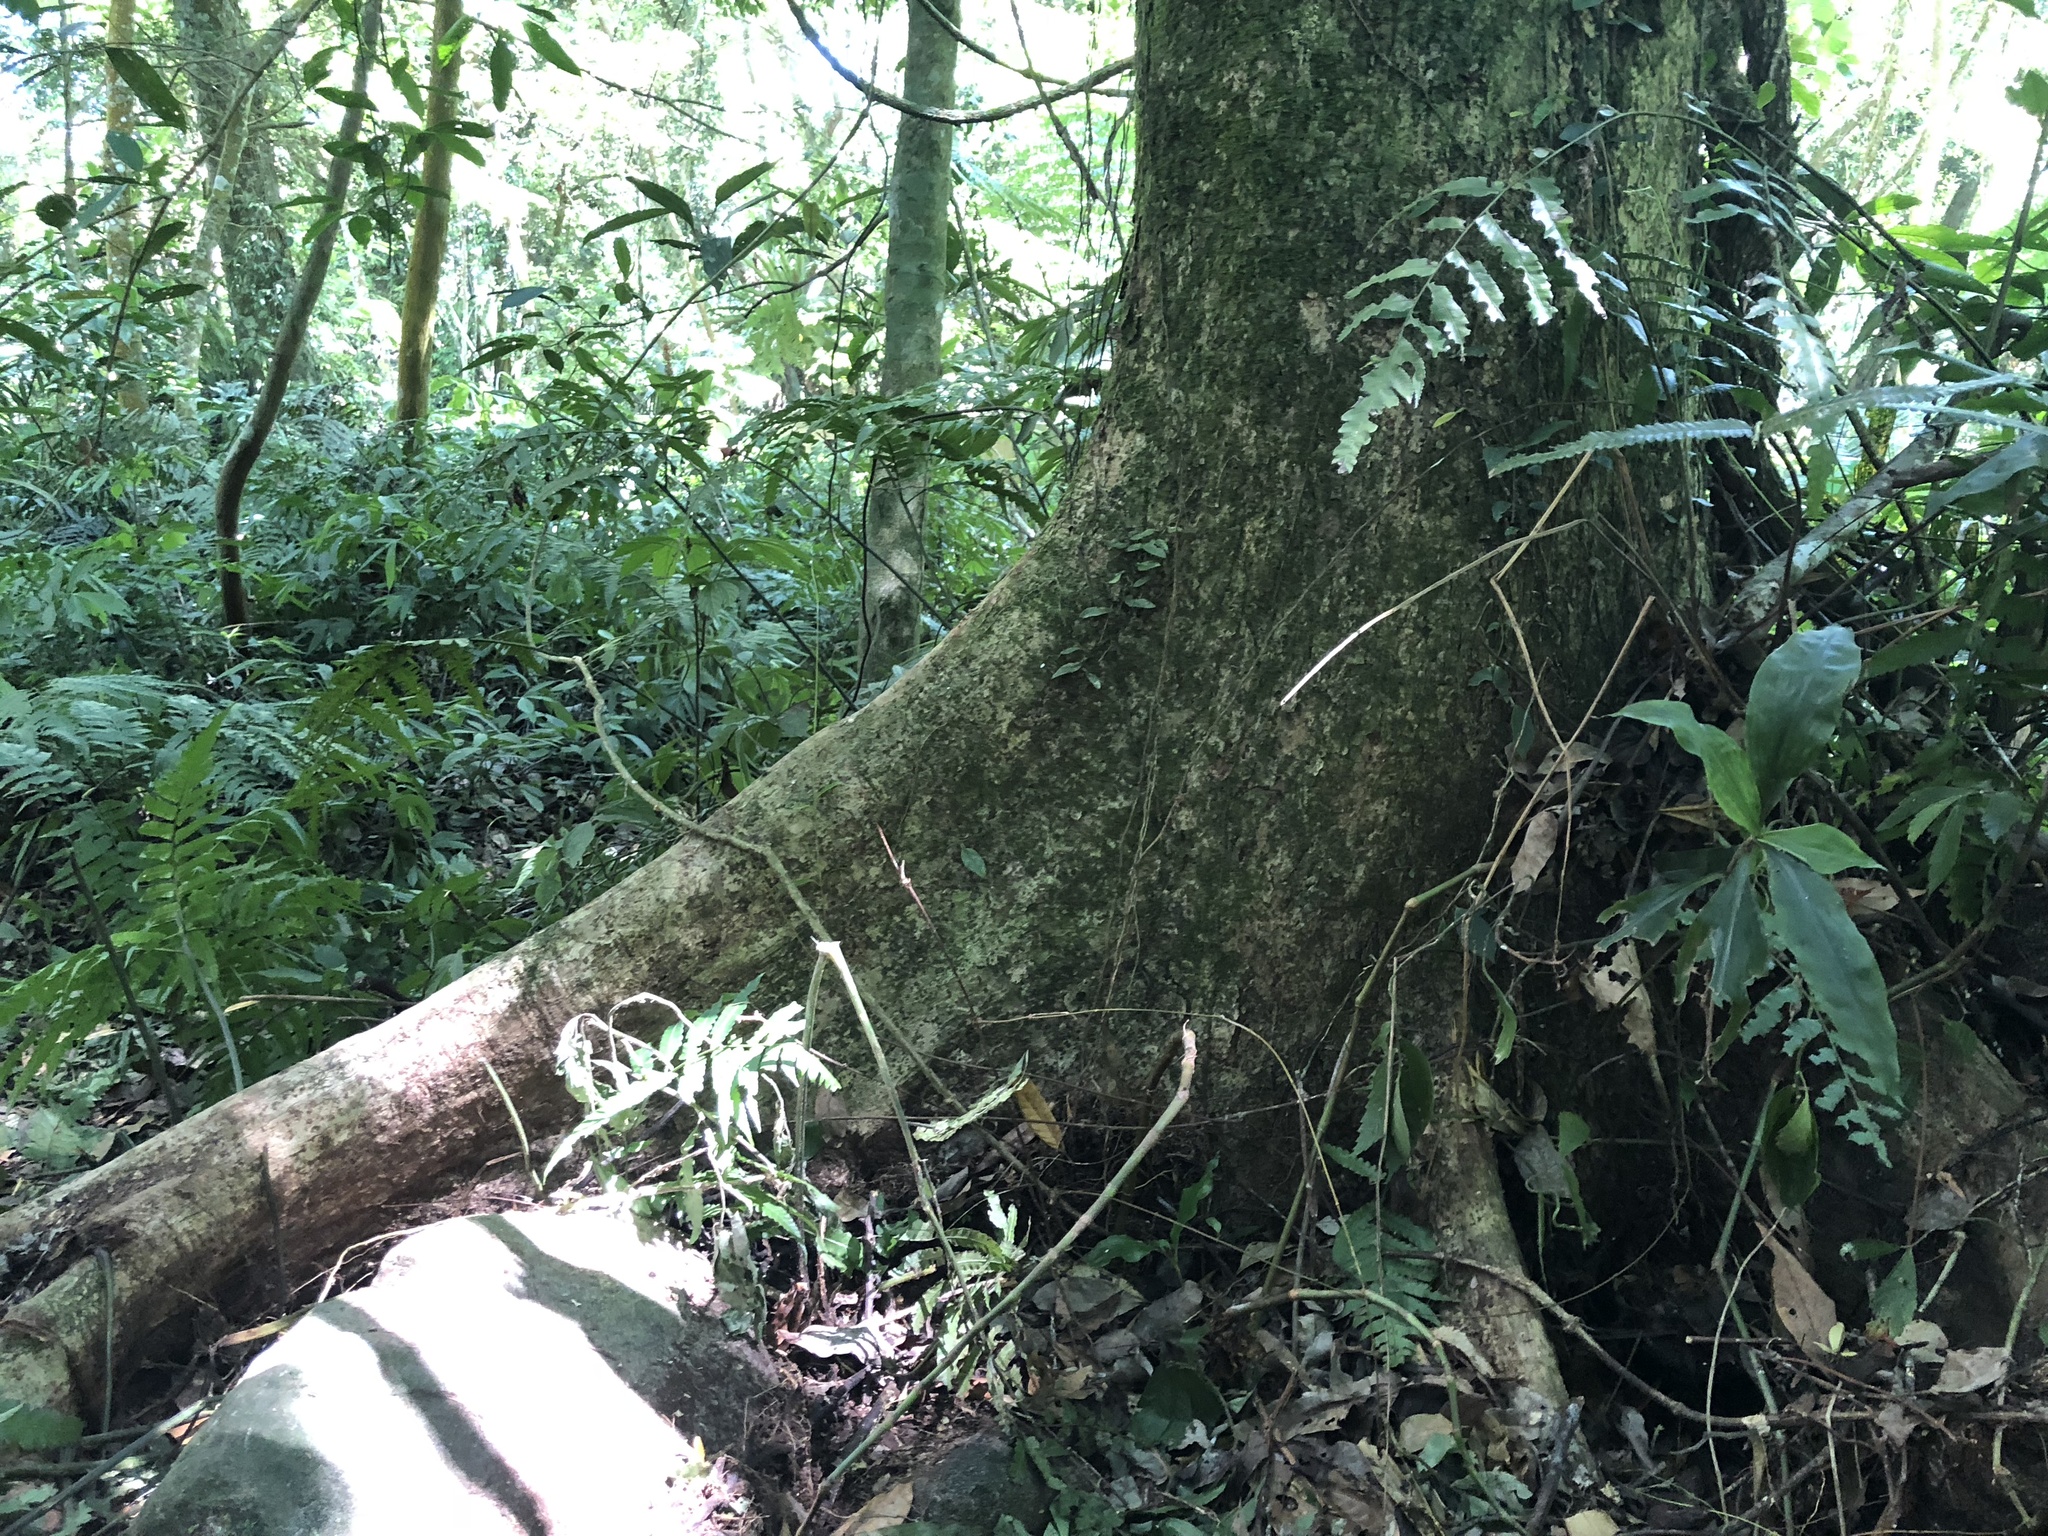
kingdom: Plantae
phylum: Tracheophyta
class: Magnoliopsida
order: Fagales
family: Fagaceae
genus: Quercus
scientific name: Quercus morii
